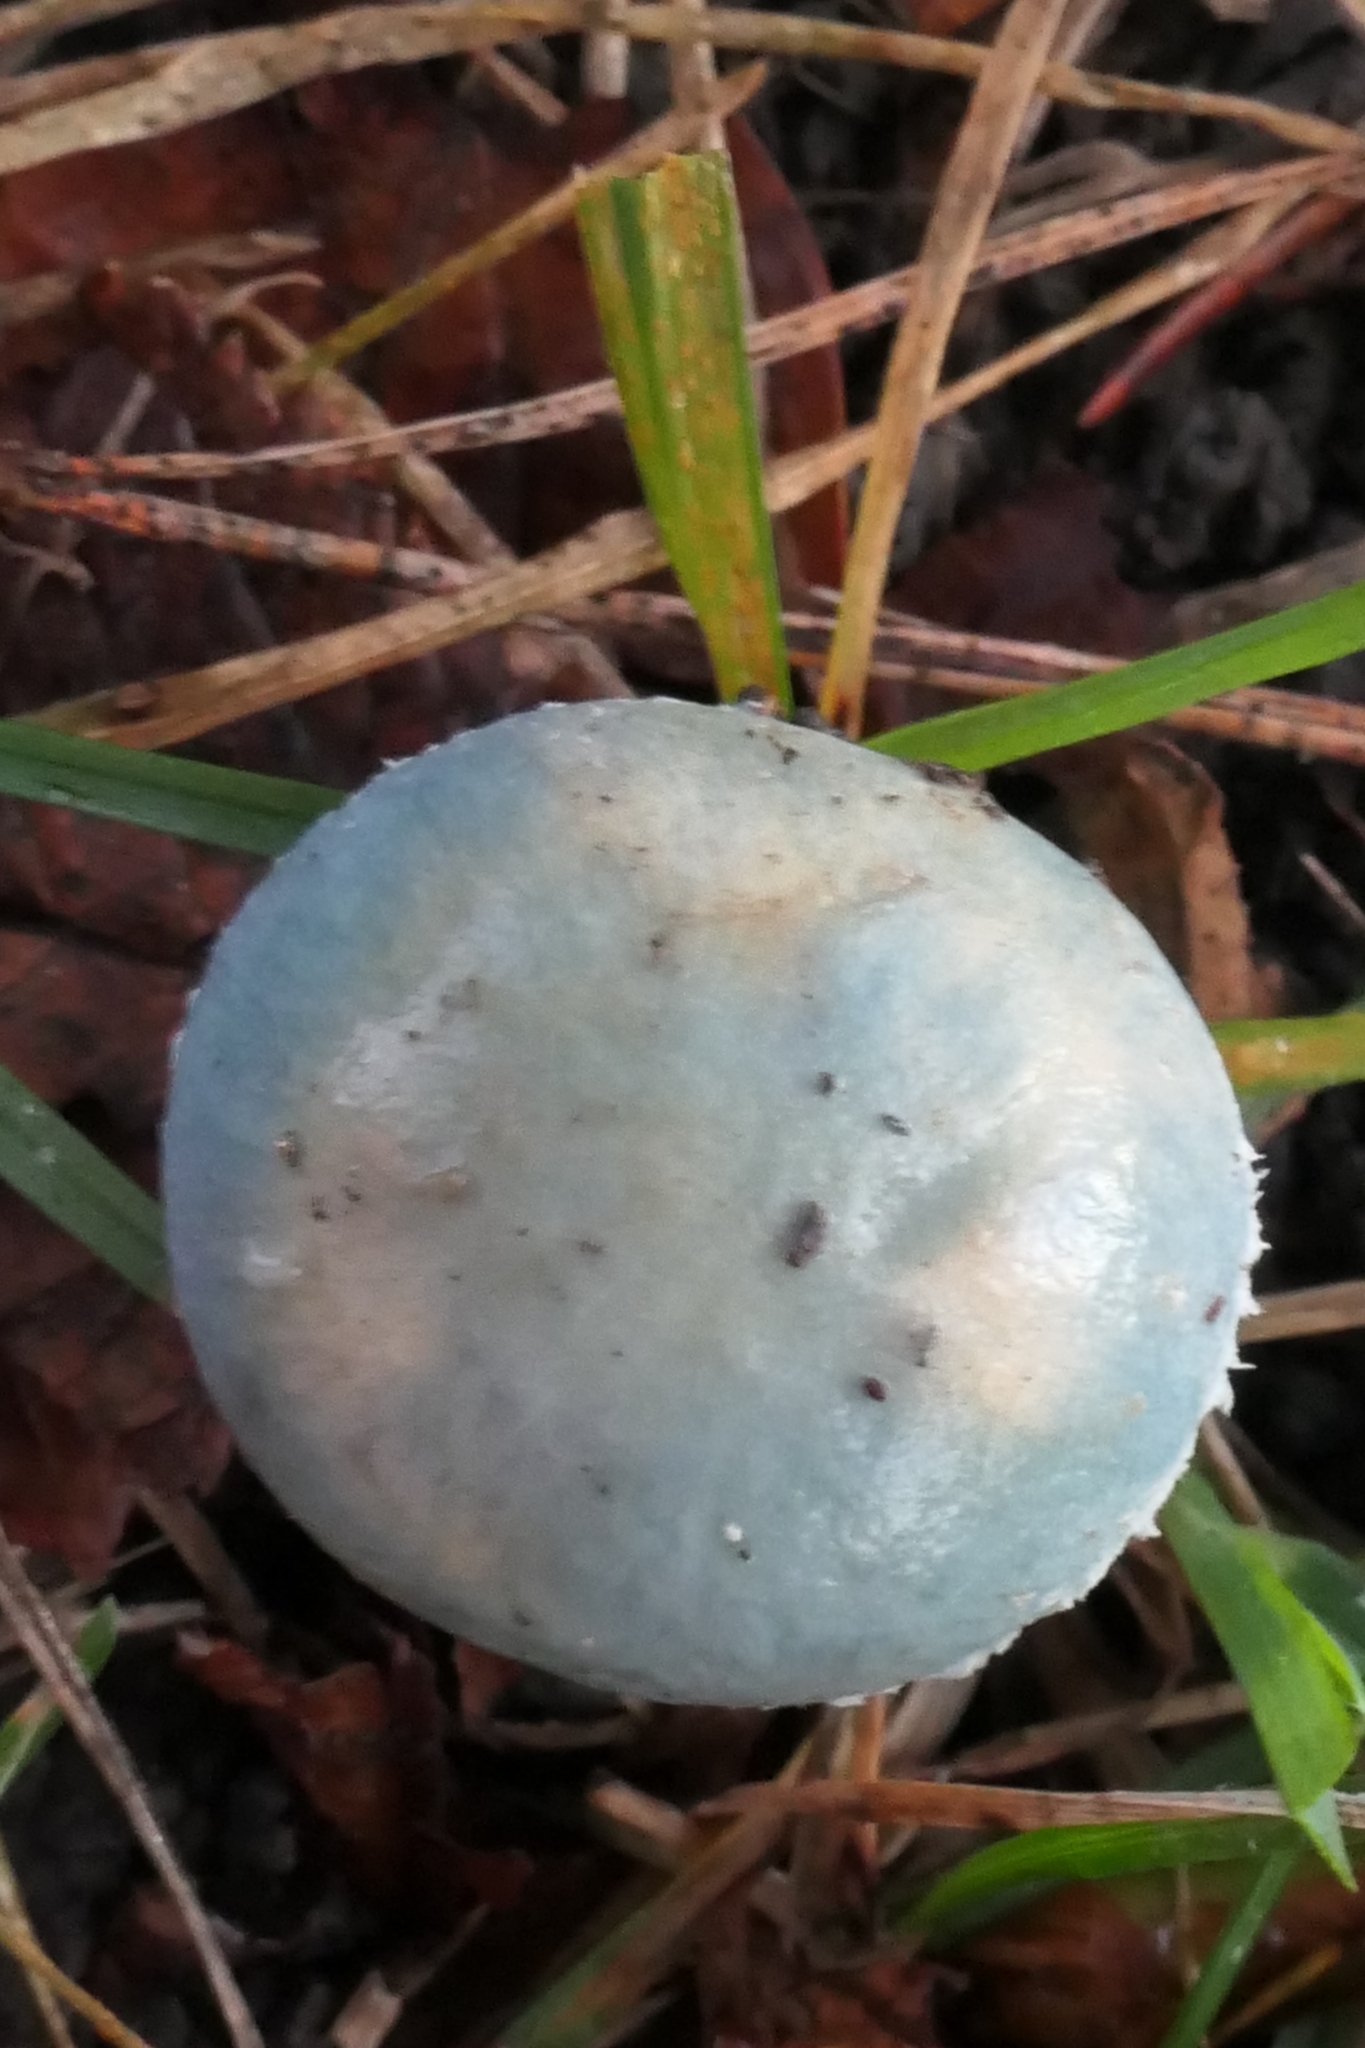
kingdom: Fungi
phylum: Basidiomycota
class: Agaricomycetes
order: Agaricales
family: Strophariaceae
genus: Stropharia
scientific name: Stropharia caerulea
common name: Blue roundhead
